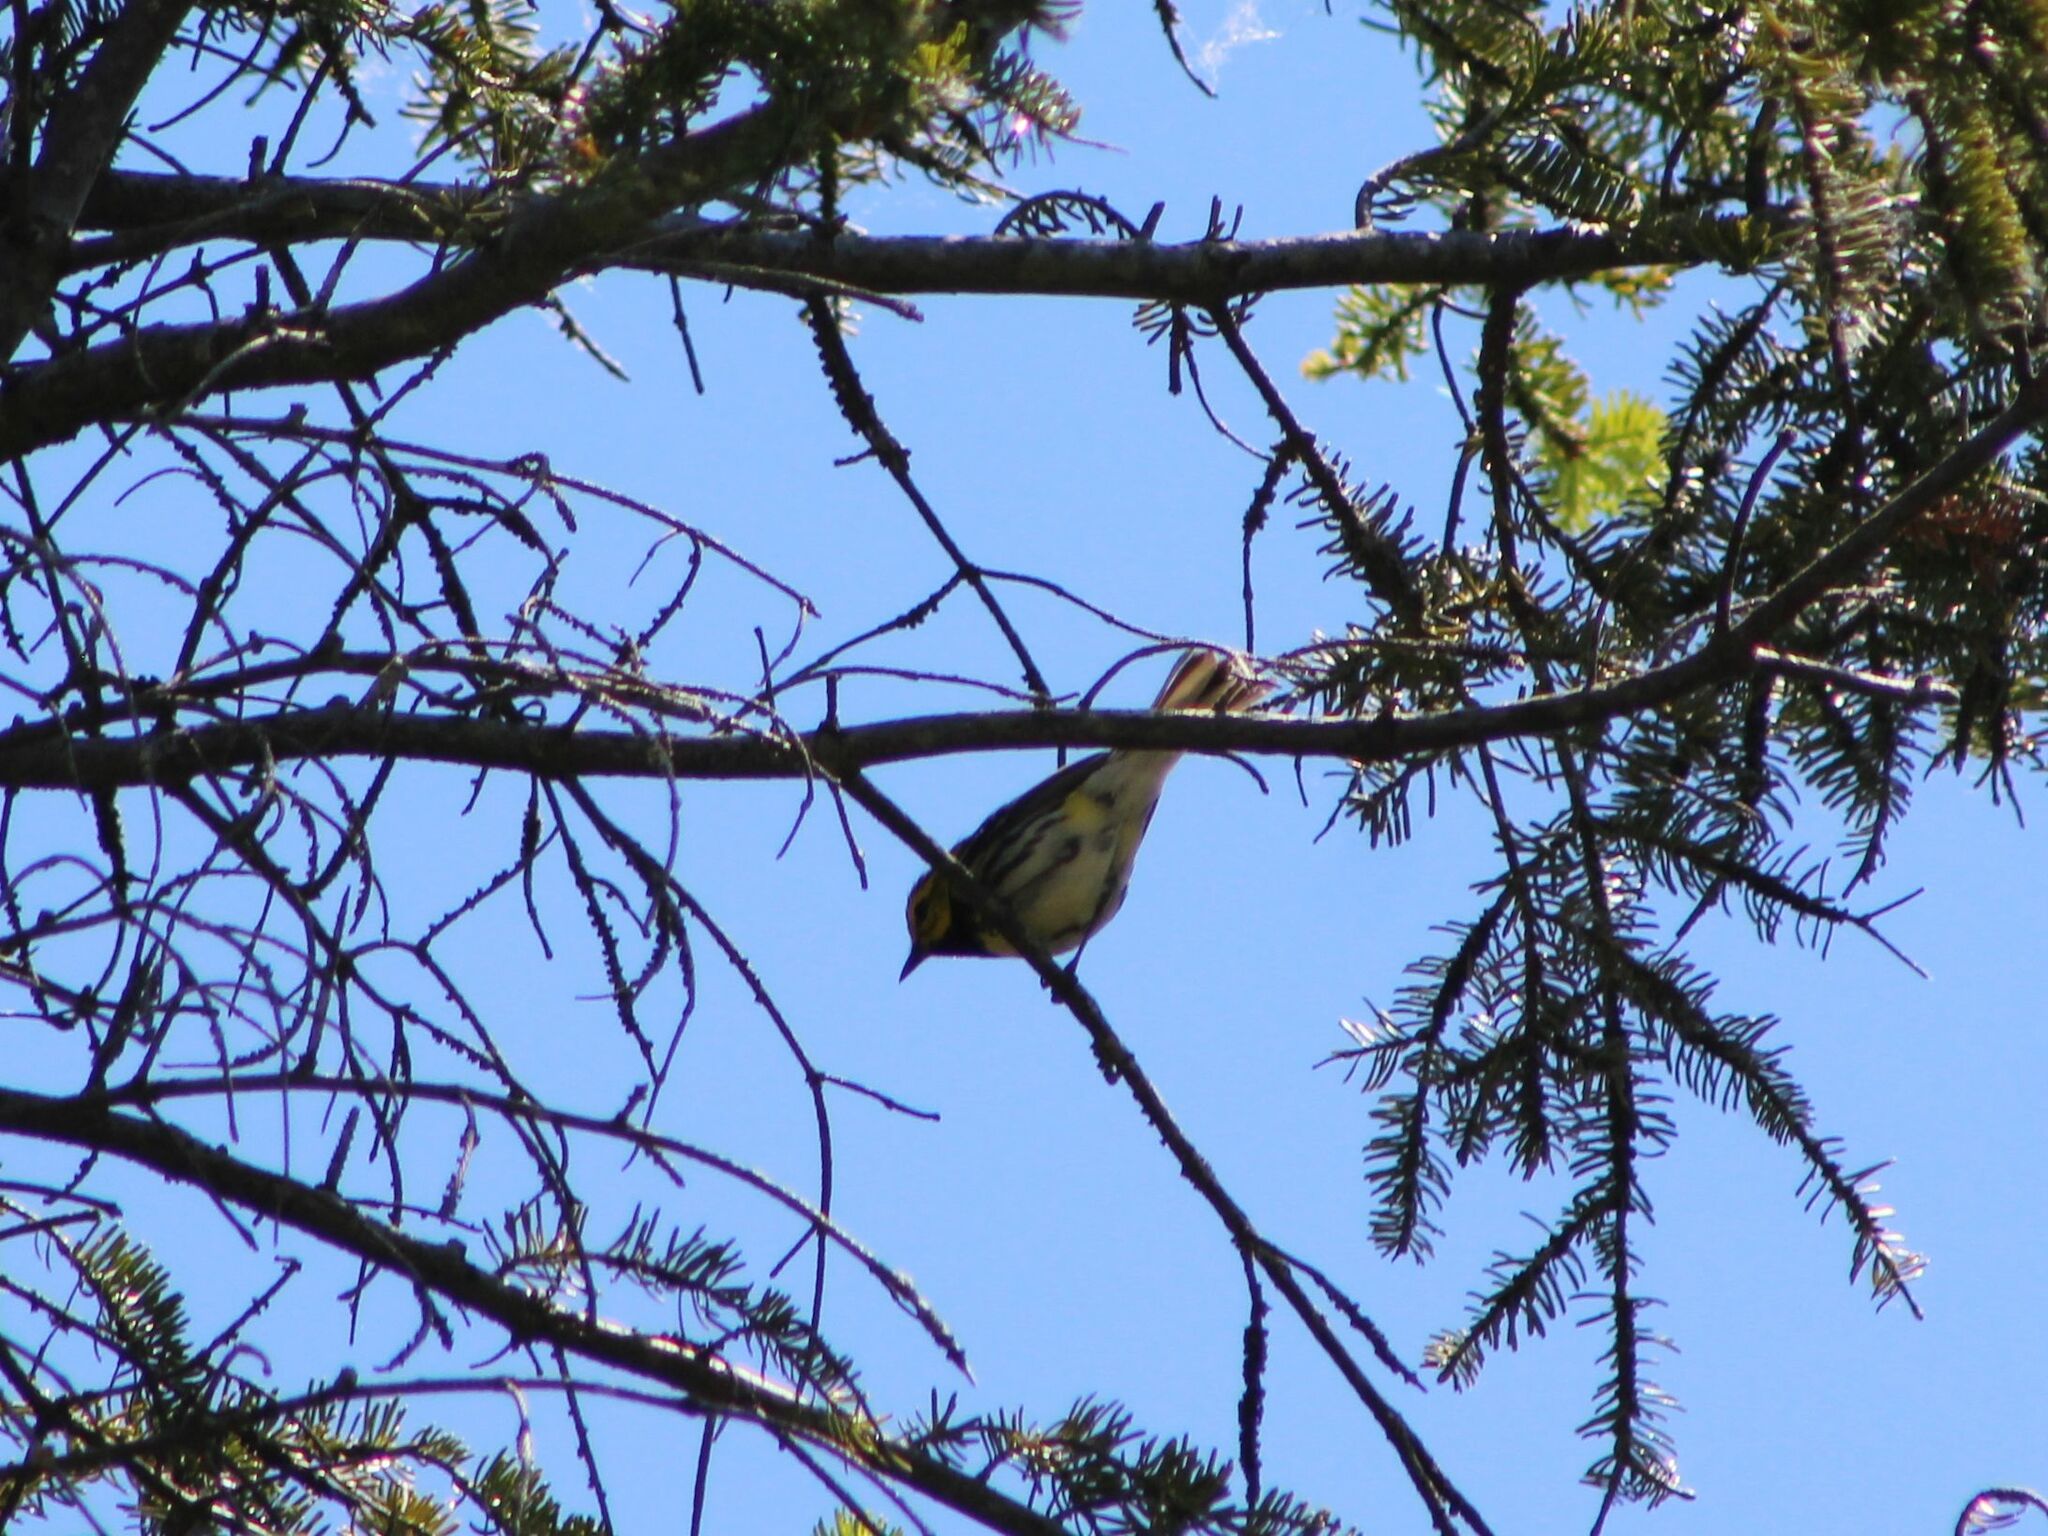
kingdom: Animalia
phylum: Chordata
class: Aves
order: Passeriformes
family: Parulidae
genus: Setophaga
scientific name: Setophaga virens
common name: Black-throated green warbler
